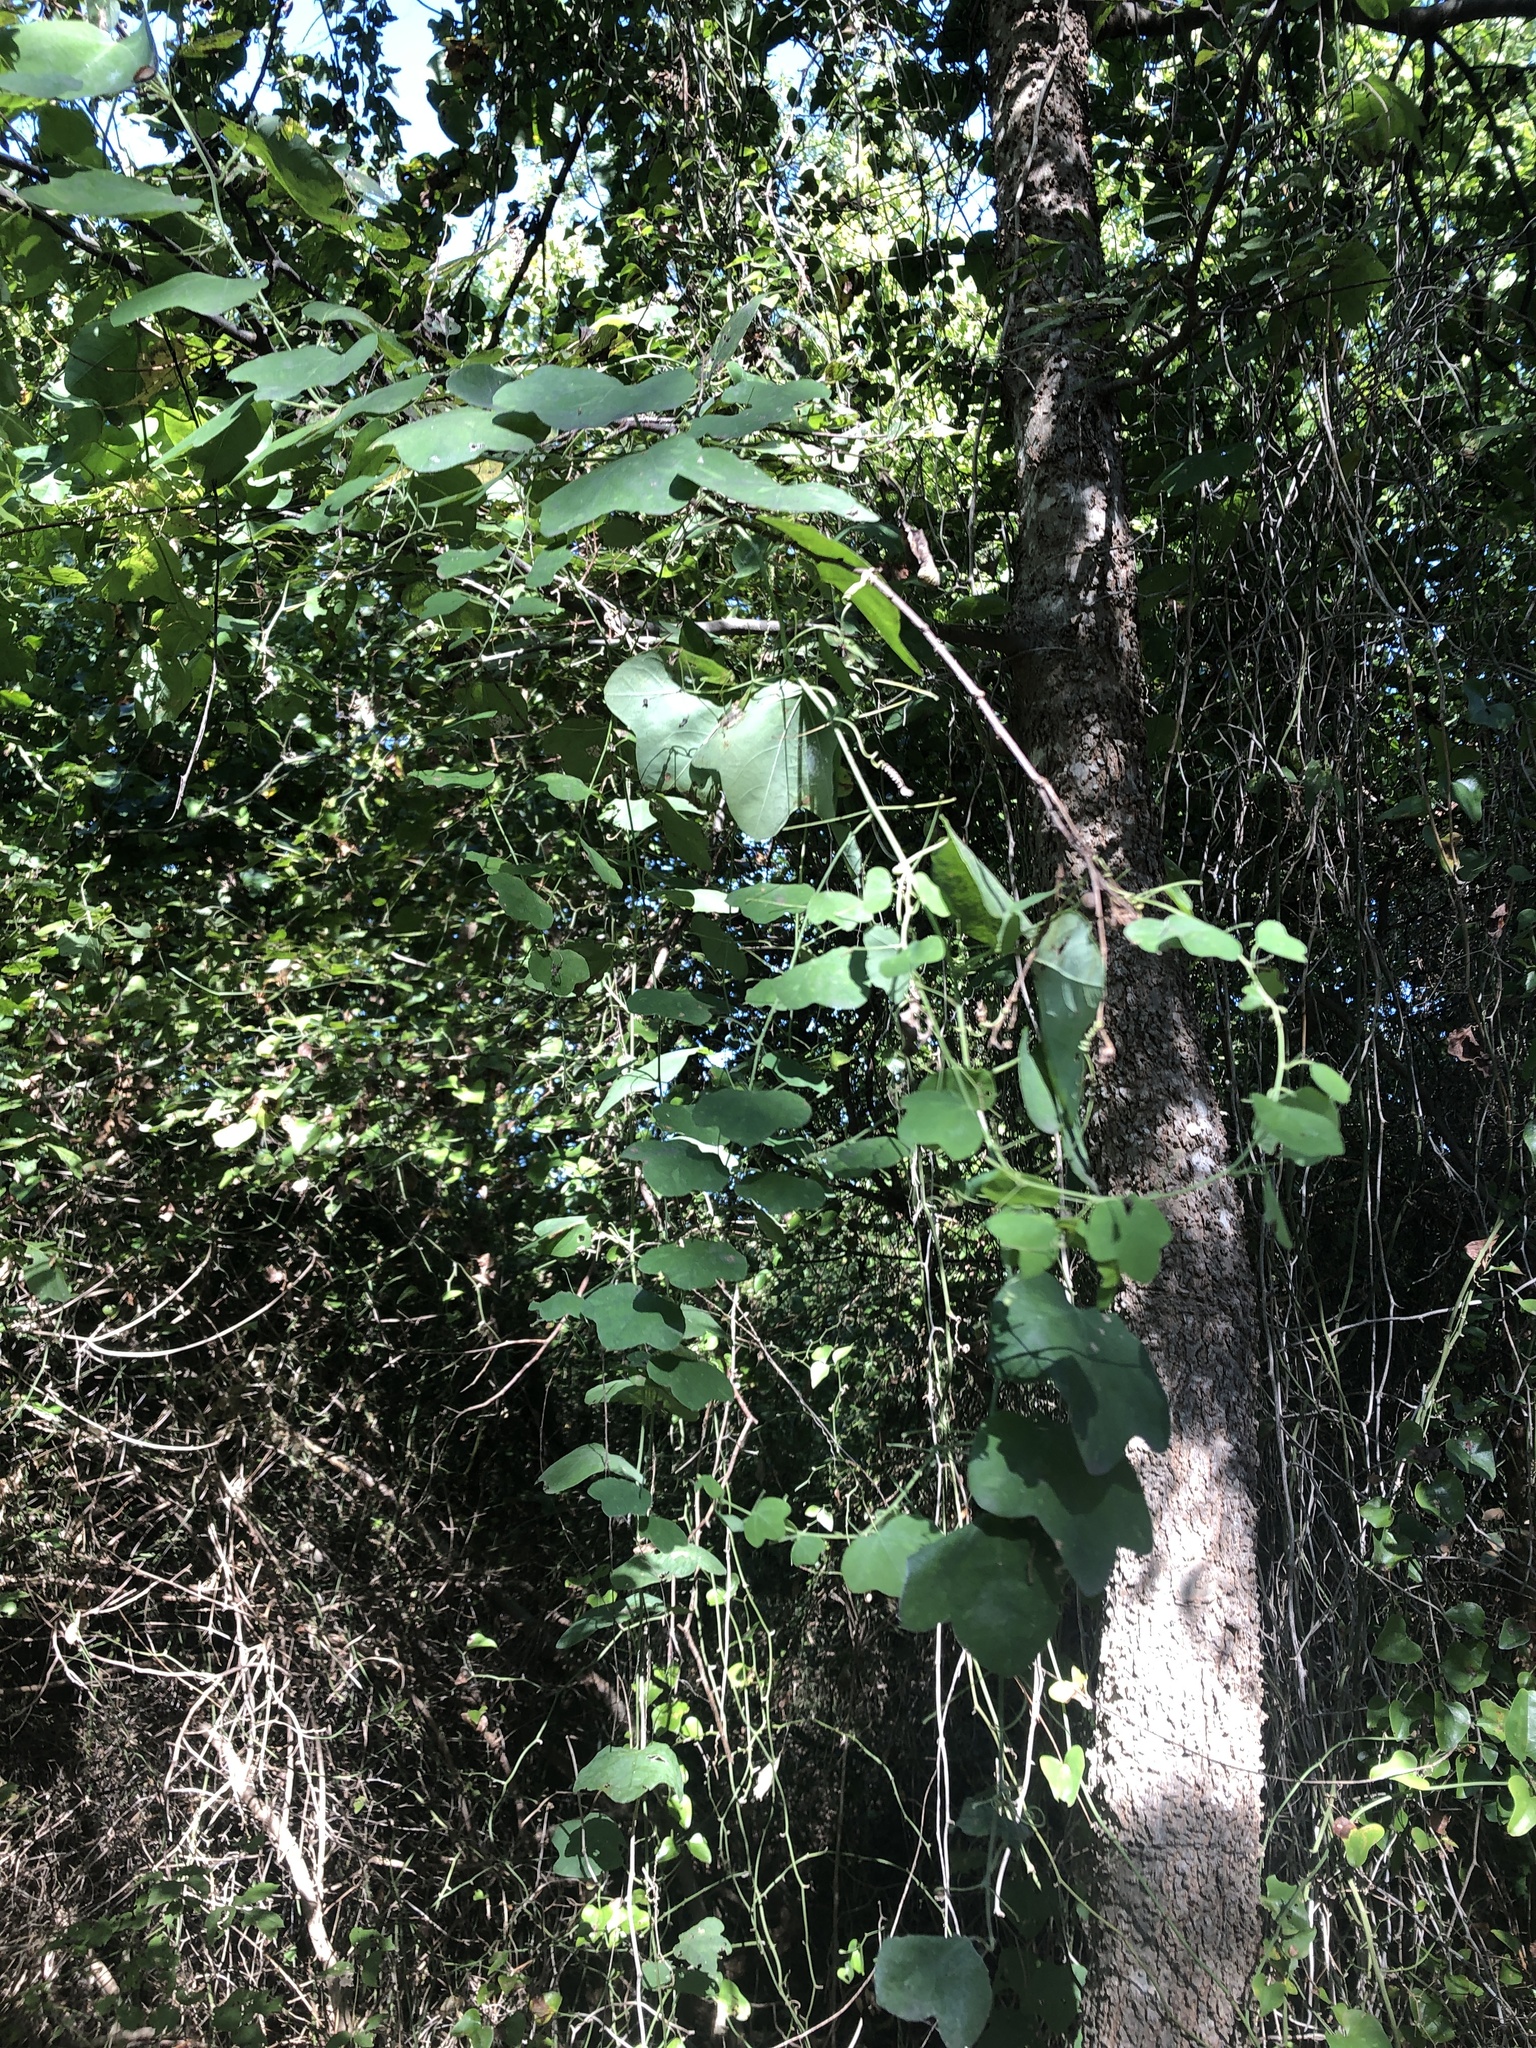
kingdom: Plantae
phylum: Tracheophyta
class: Magnoliopsida
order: Malpighiales
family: Passifloraceae
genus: Passiflora
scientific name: Passiflora lutea
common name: Yellow passionflower
